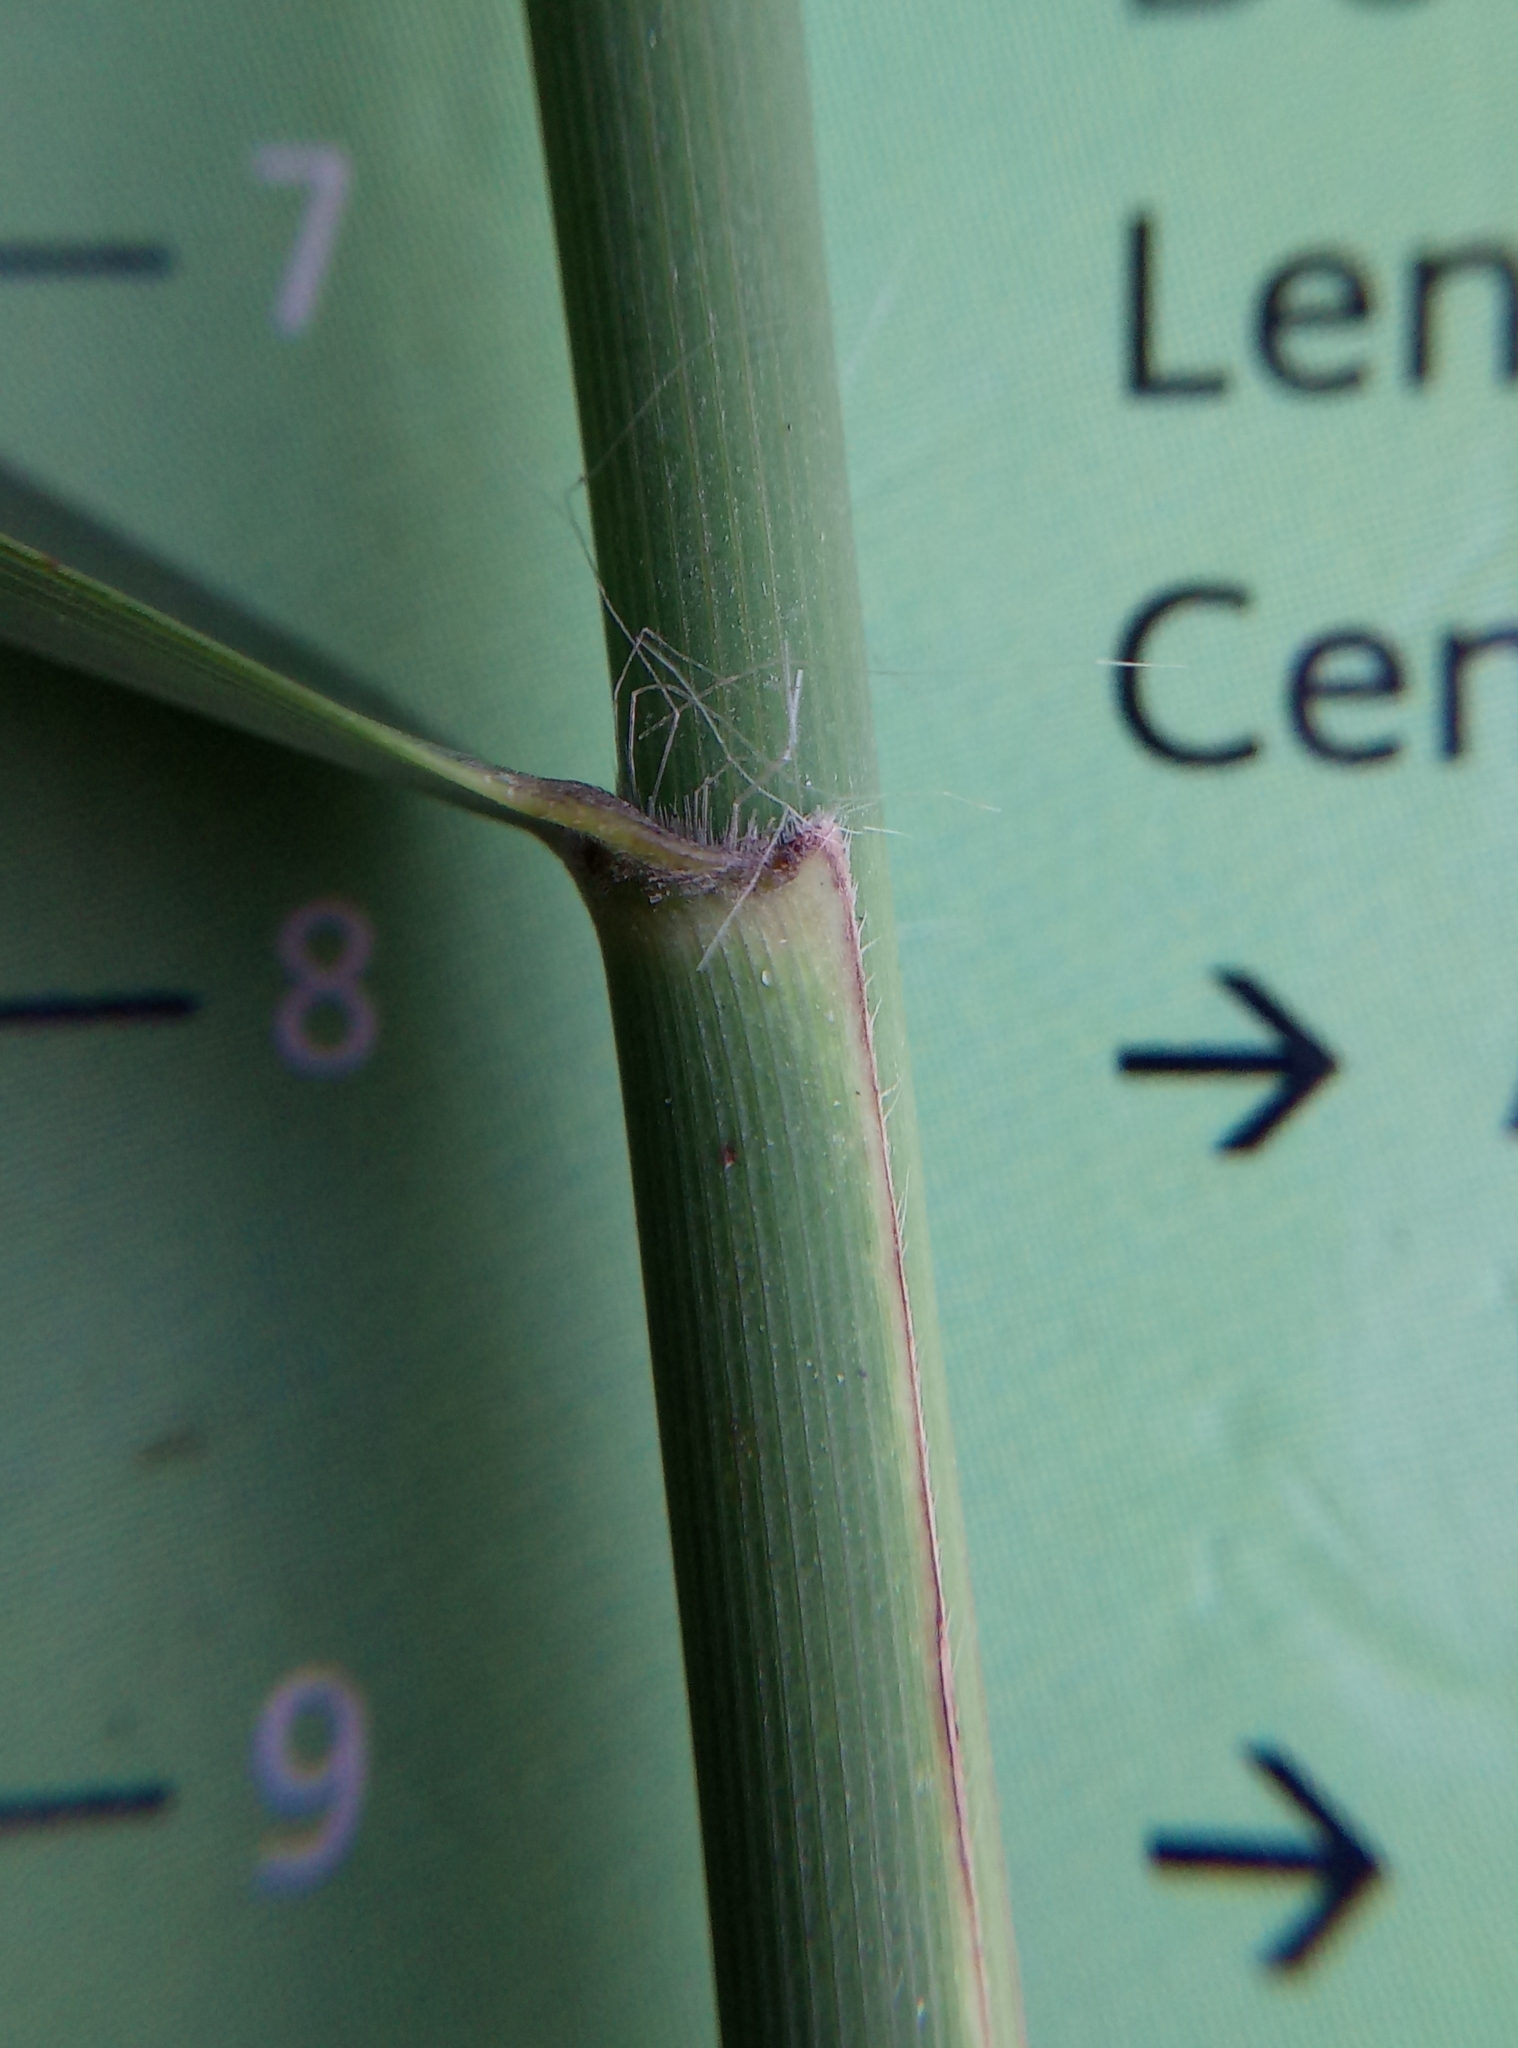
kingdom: Plantae
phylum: Tracheophyta
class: Liliopsida
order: Poales
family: Poaceae
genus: Phragmites
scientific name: Phragmites australis
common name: Common reed
